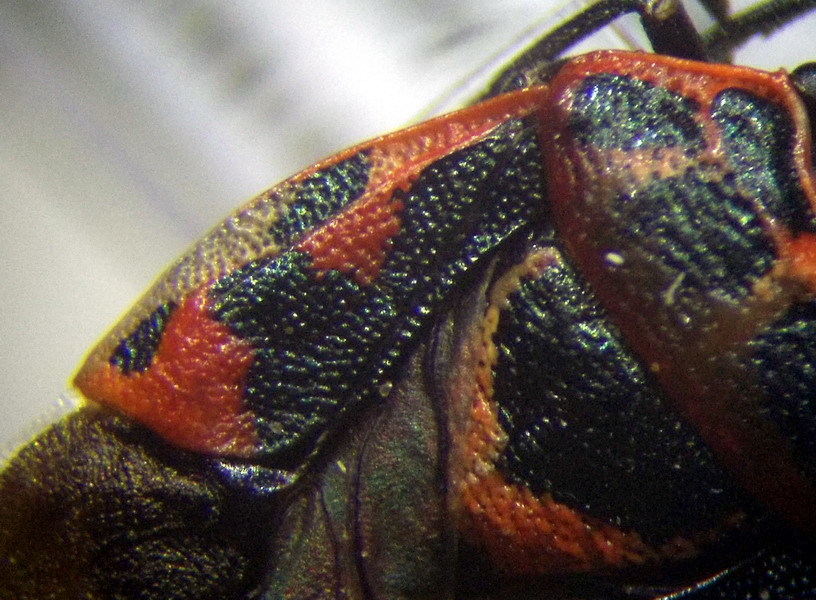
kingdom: Animalia
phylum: Arthropoda
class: Insecta
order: Hemiptera
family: Pentatomidae
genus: Eurydema
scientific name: Eurydema ornata
